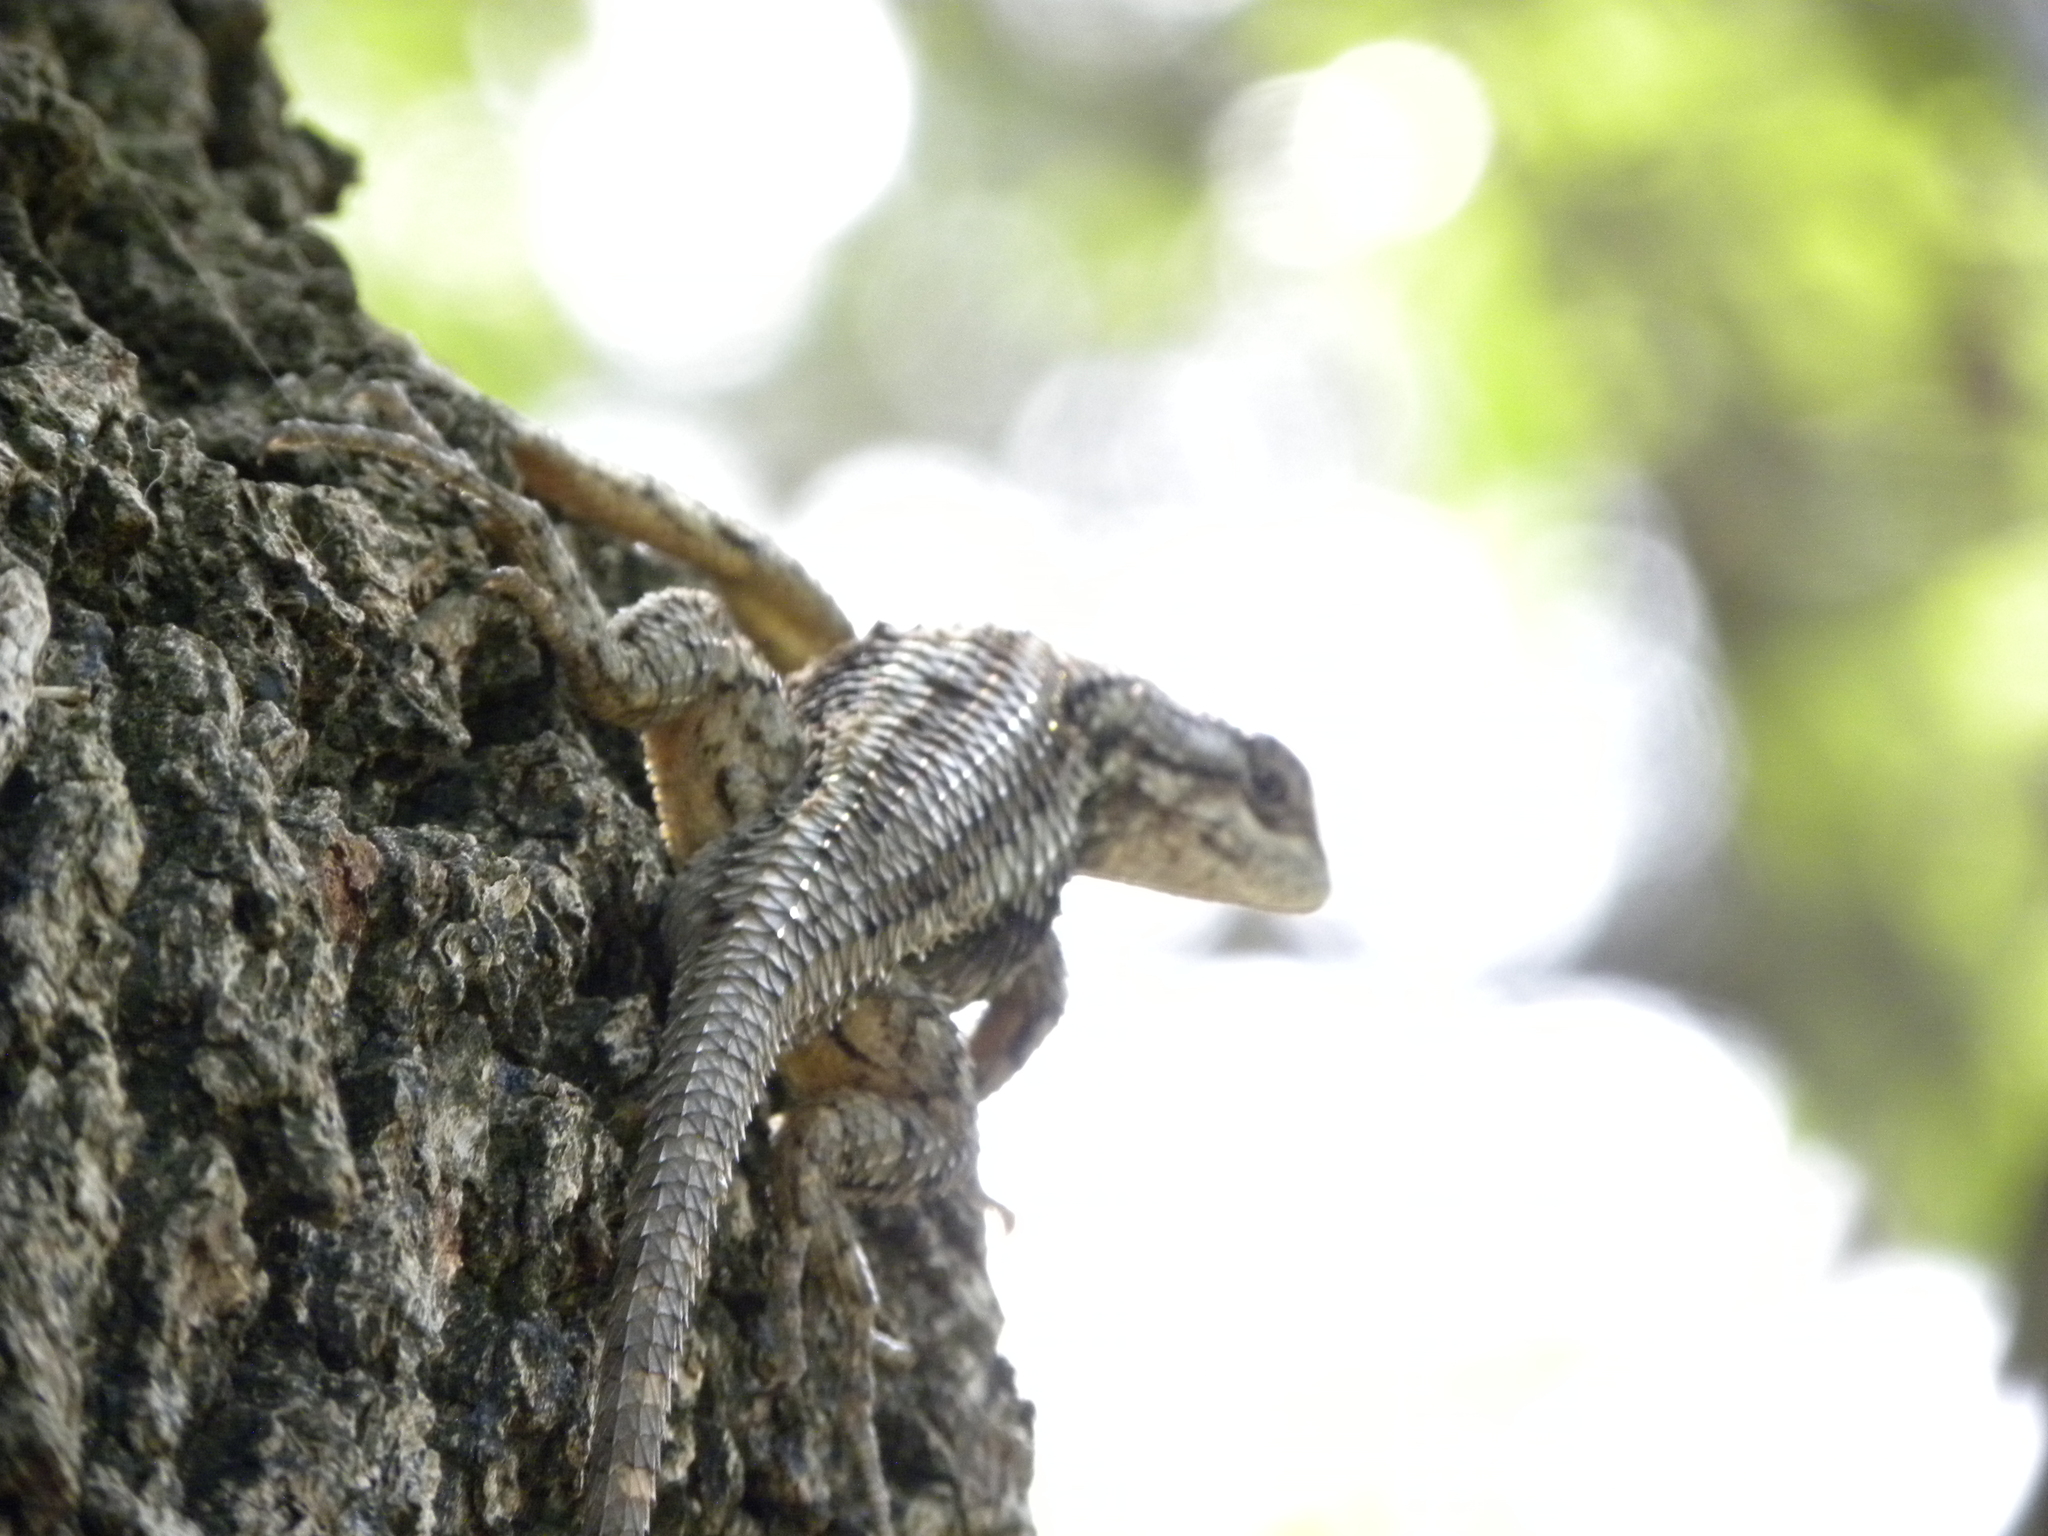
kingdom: Animalia
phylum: Chordata
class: Squamata
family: Phrynosomatidae
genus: Sceloporus
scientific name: Sceloporus olivaceus
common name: Texas spiny lizard
